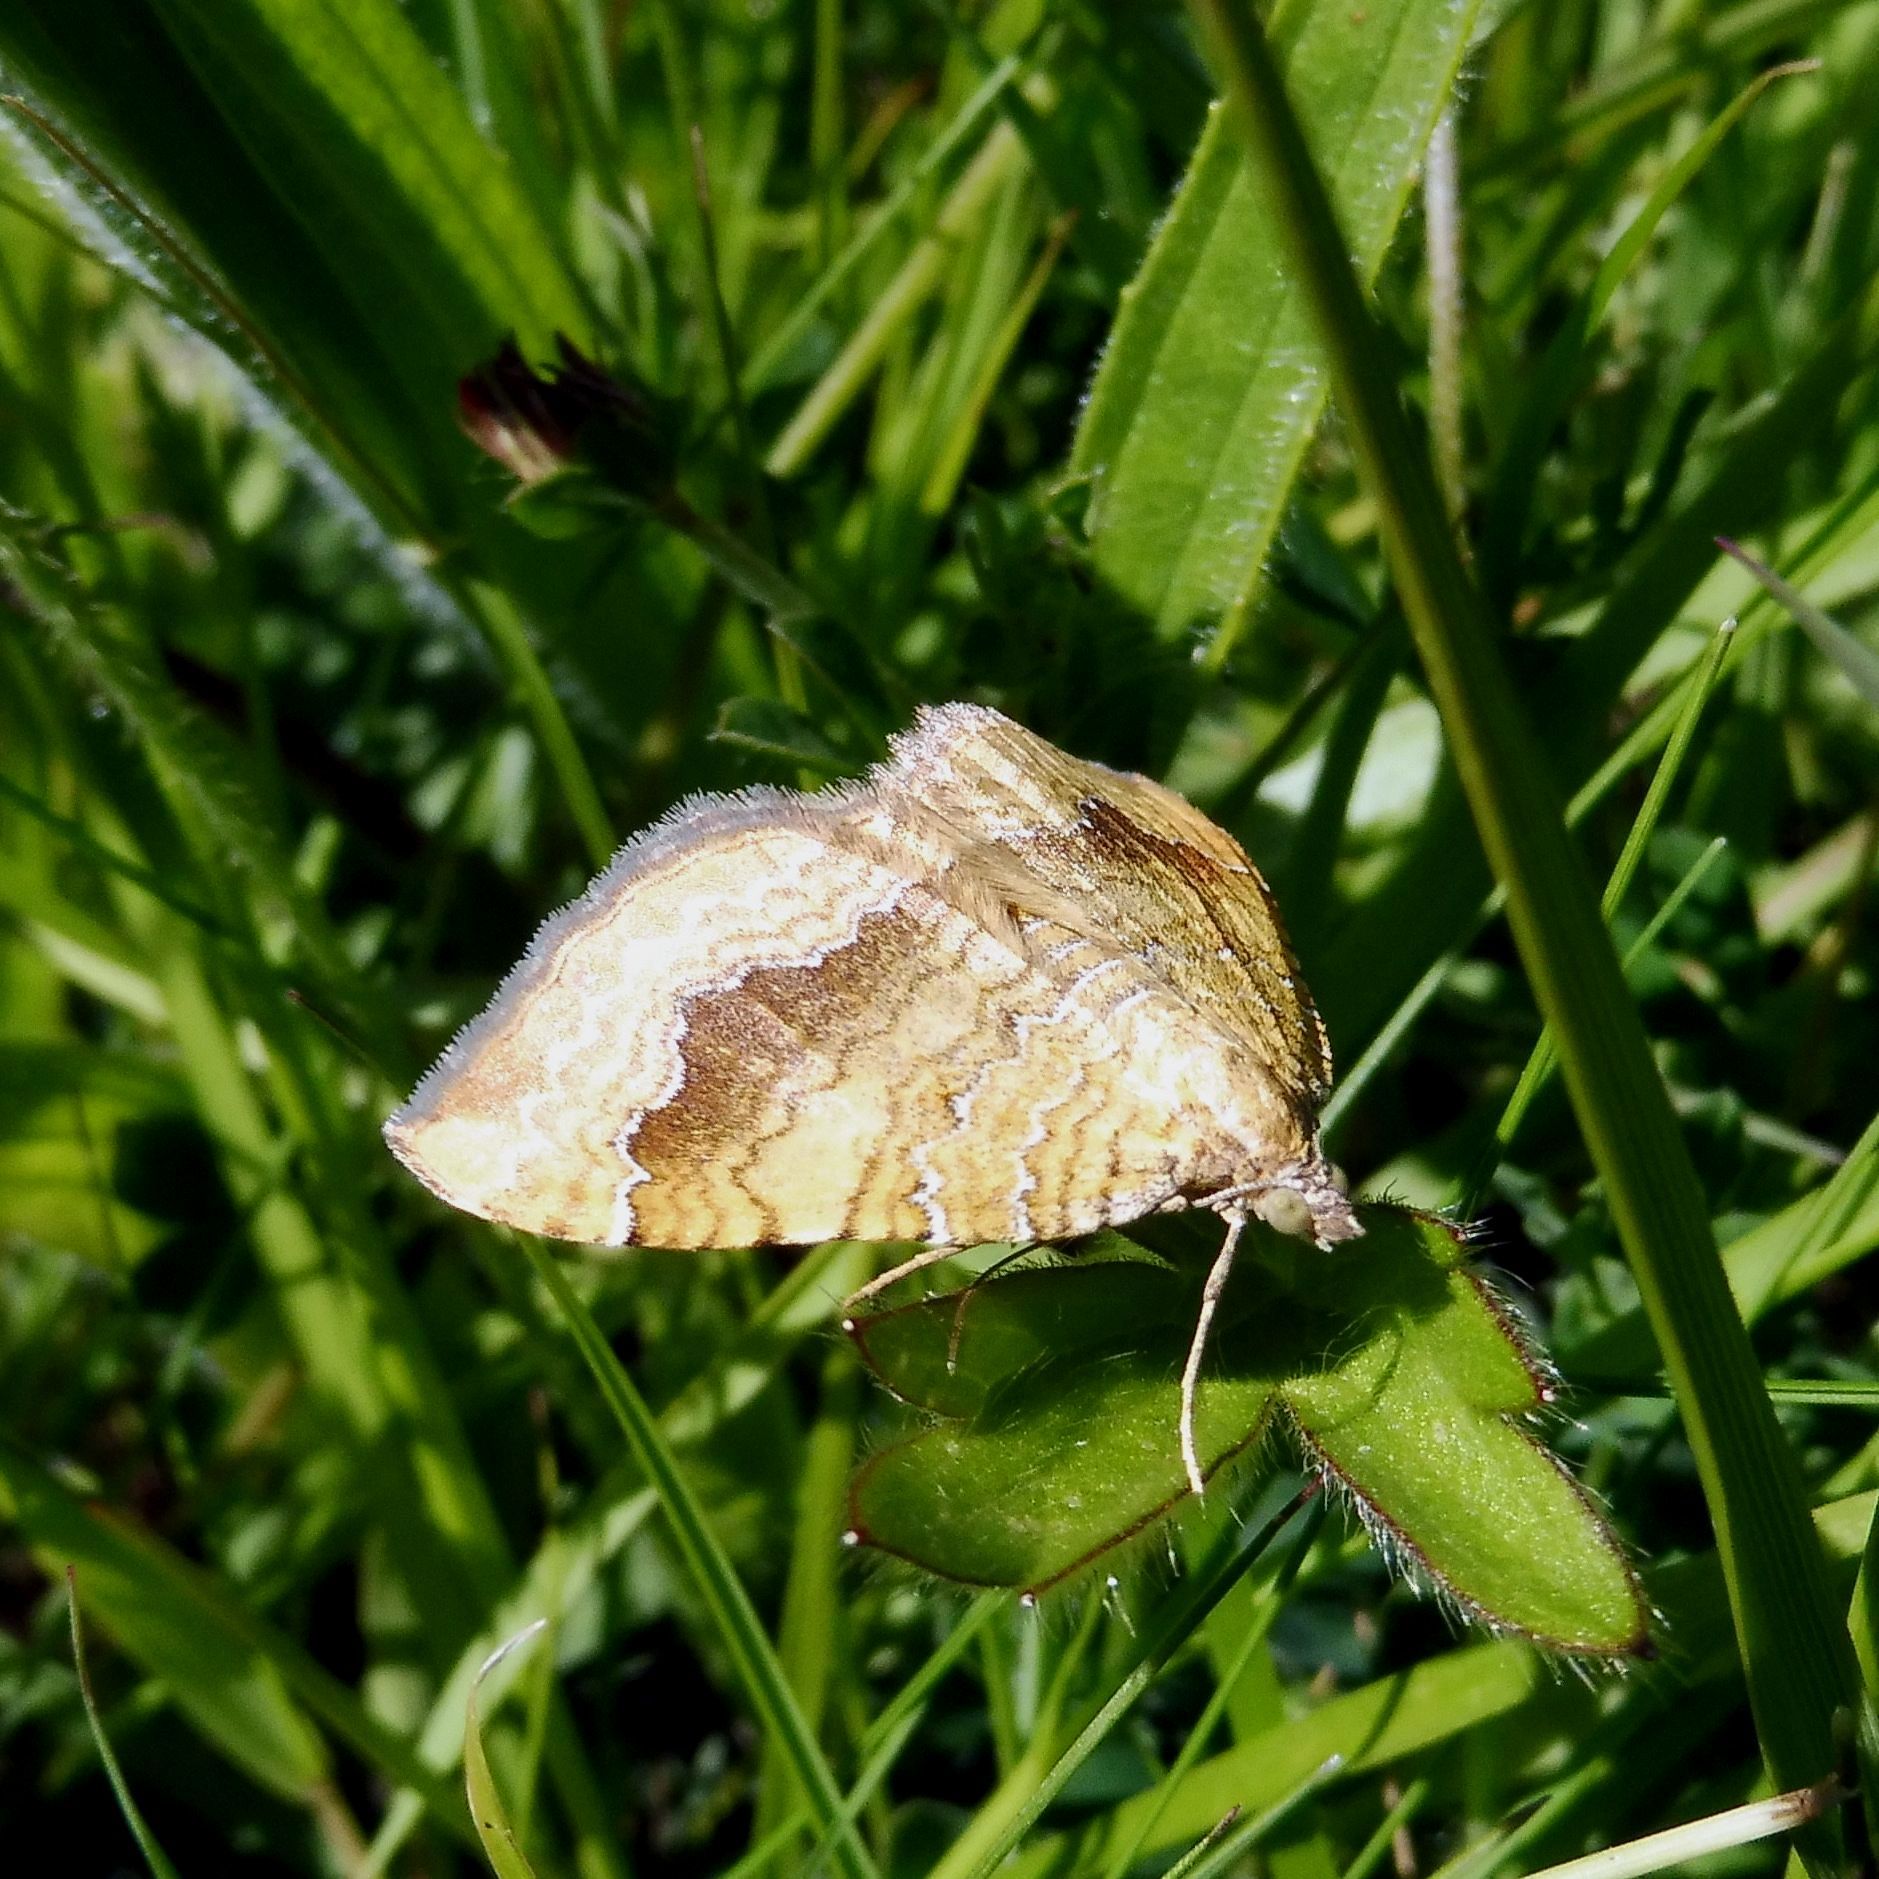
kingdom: Animalia
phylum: Arthropoda
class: Insecta
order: Lepidoptera
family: Geometridae
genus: Camptogramma
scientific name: Camptogramma bilineata
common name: Yellow shell
